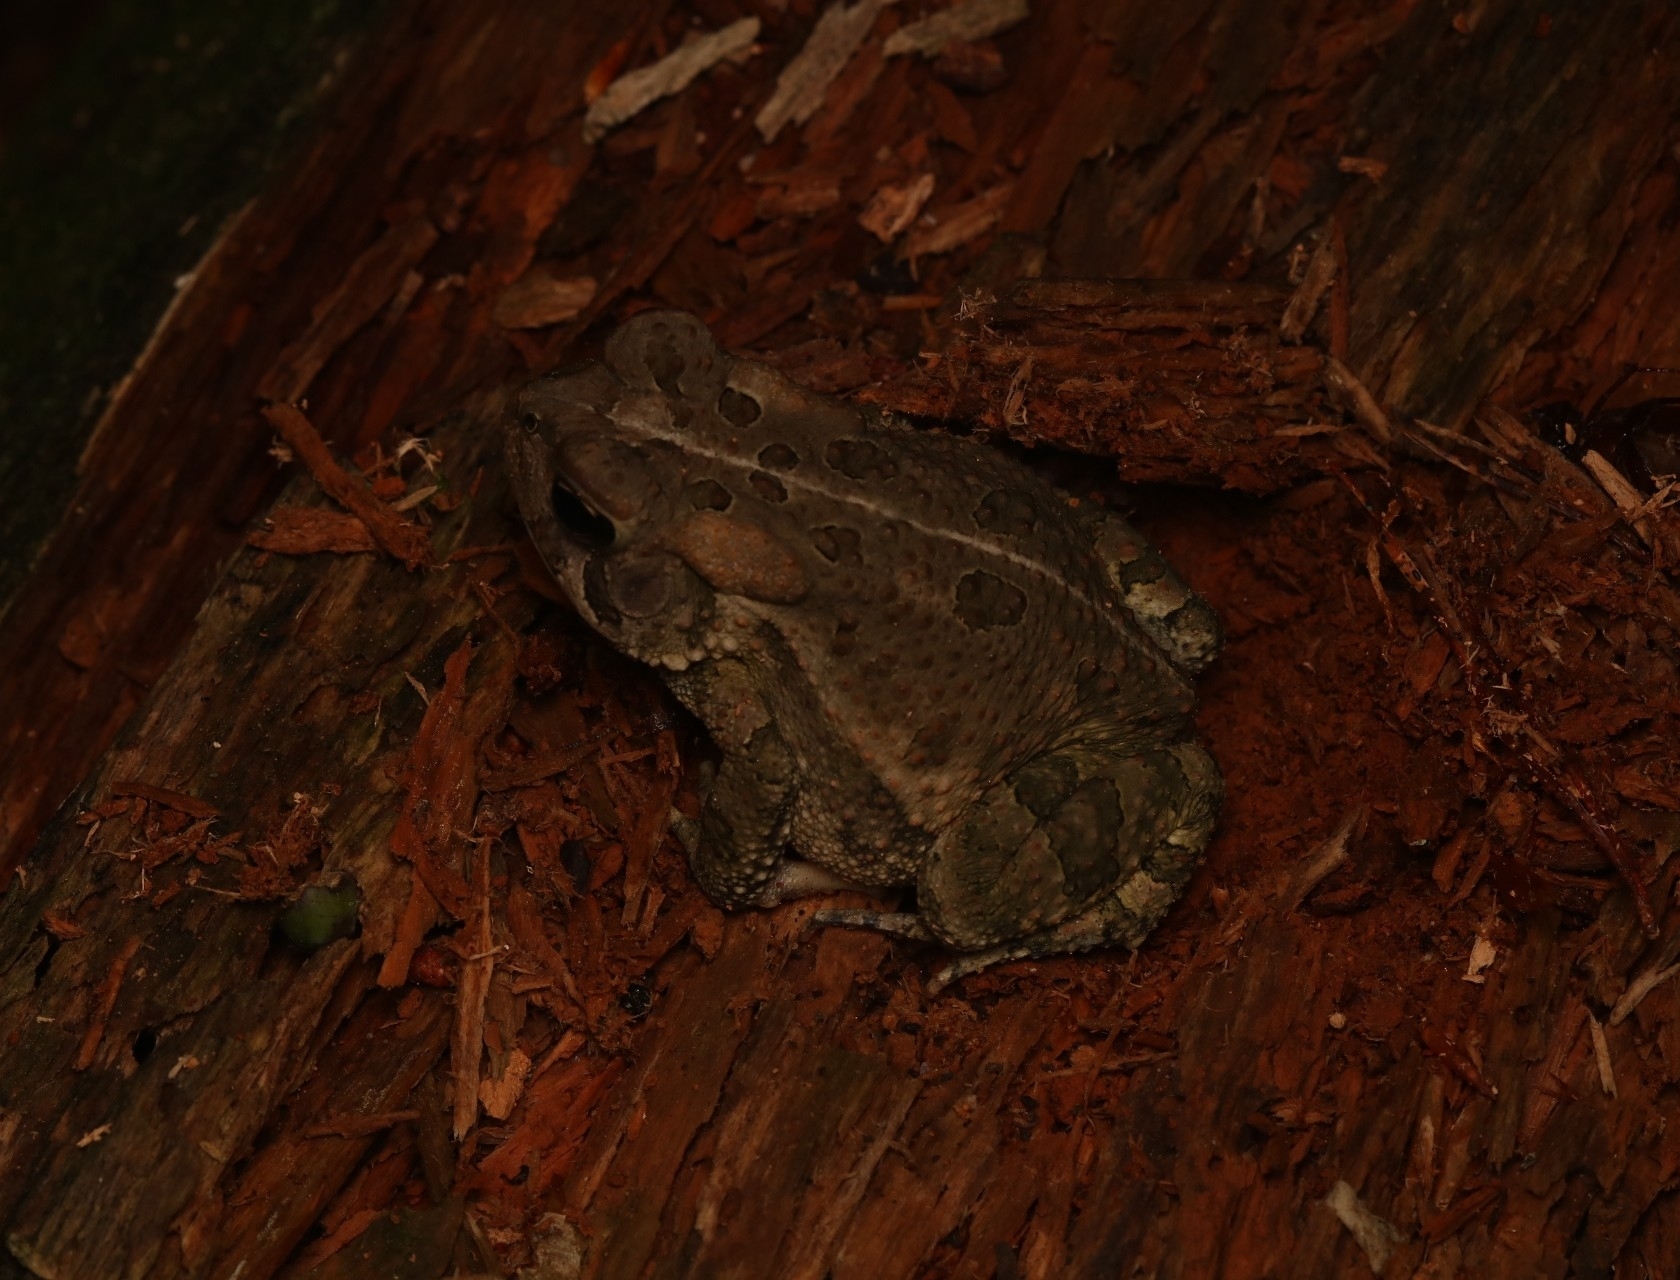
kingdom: Animalia
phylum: Chordata
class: Amphibia
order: Anura
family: Bufonidae
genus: Anaxyrus
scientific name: Anaxyrus fowleri
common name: Fowler's toad
